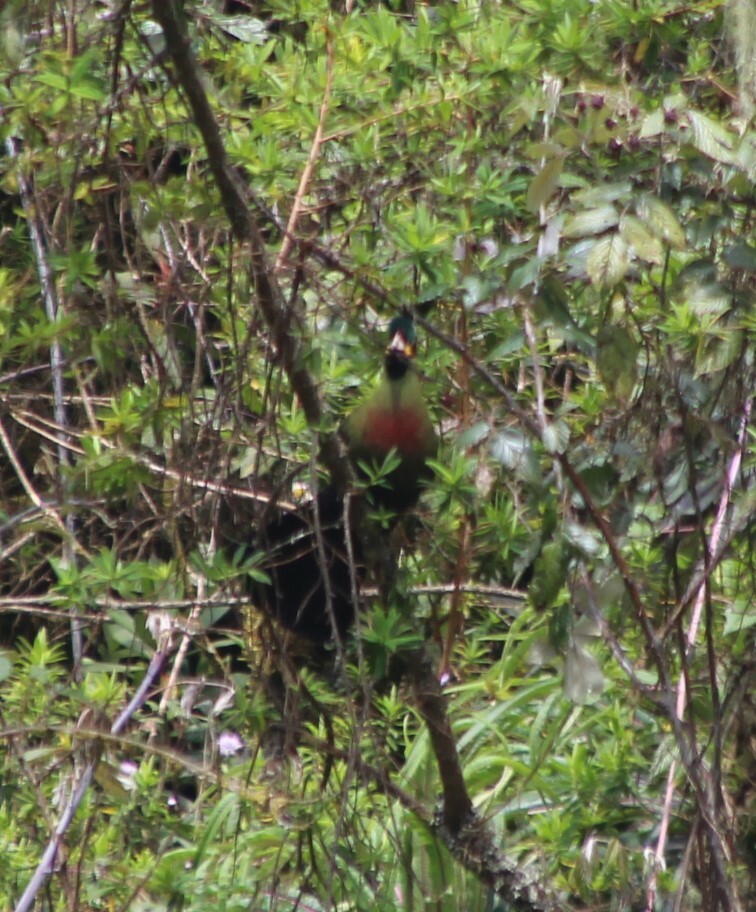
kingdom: Animalia
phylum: Chordata
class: Aves
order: Musophagiformes
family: Musophagidae
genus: Ruwenzorornis
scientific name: Ruwenzorornis johnstoni
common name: Ruwenzori turaco
